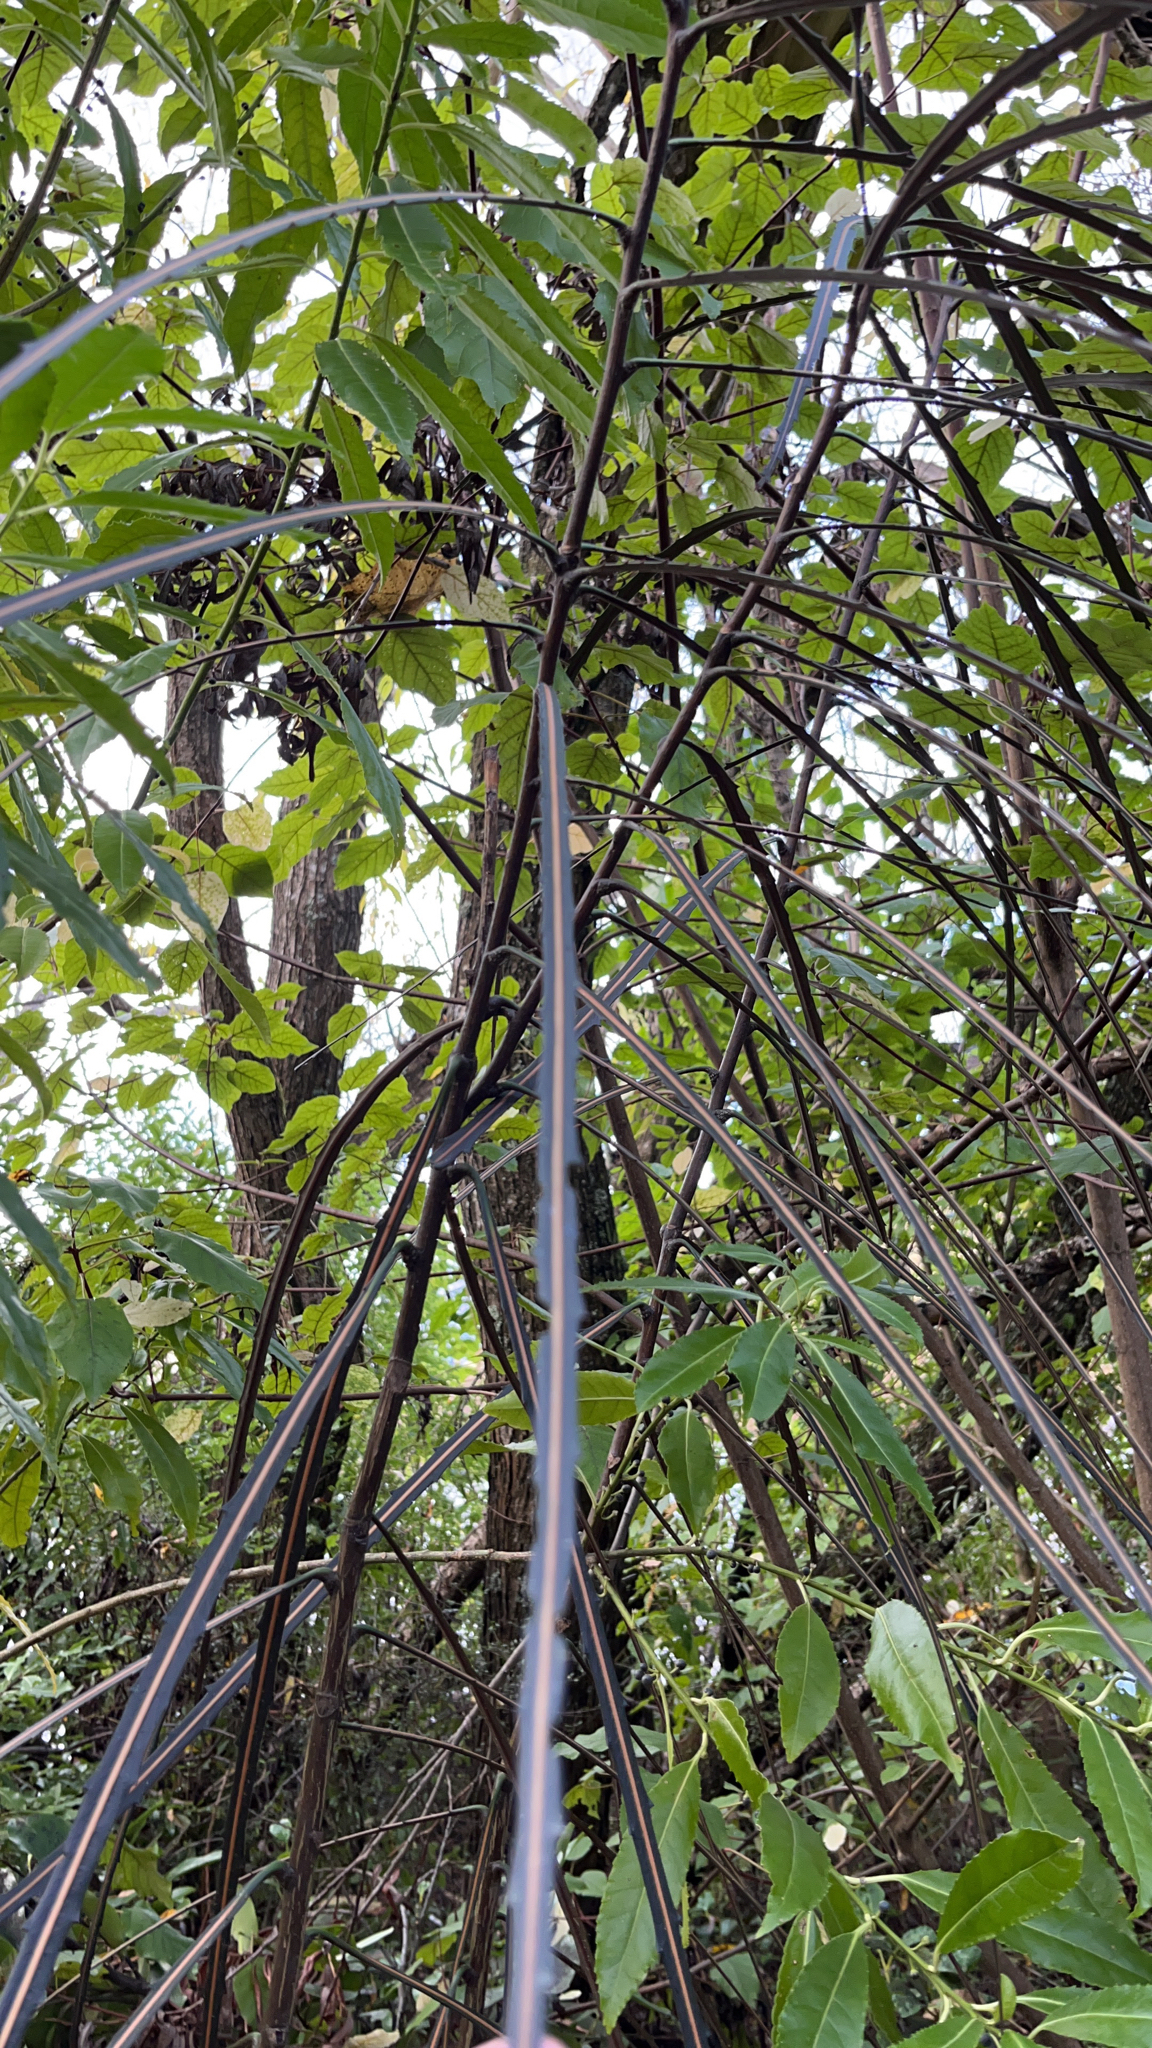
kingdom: Plantae
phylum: Tracheophyta
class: Magnoliopsida
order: Apiales
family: Araliaceae
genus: Pseudopanax
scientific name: Pseudopanax crassifolius
